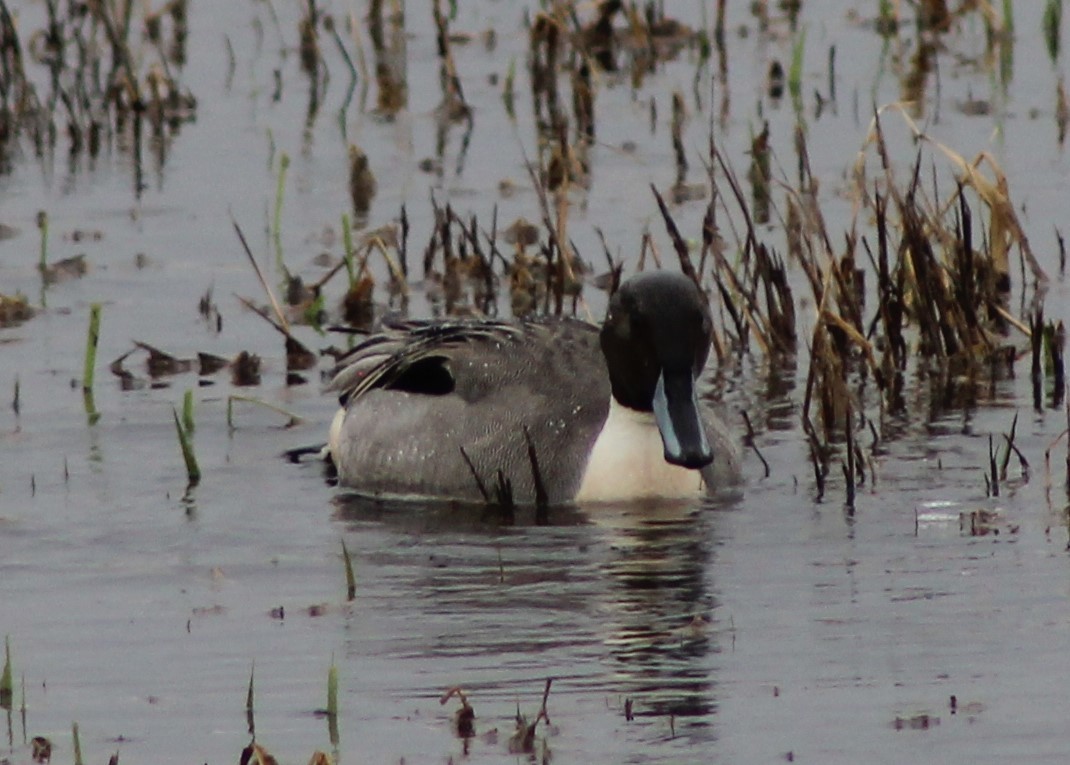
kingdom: Animalia
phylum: Chordata
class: Aves
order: Anseriformes
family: Anatidae
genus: Anas
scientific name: Anas acuta
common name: Northern pintail
